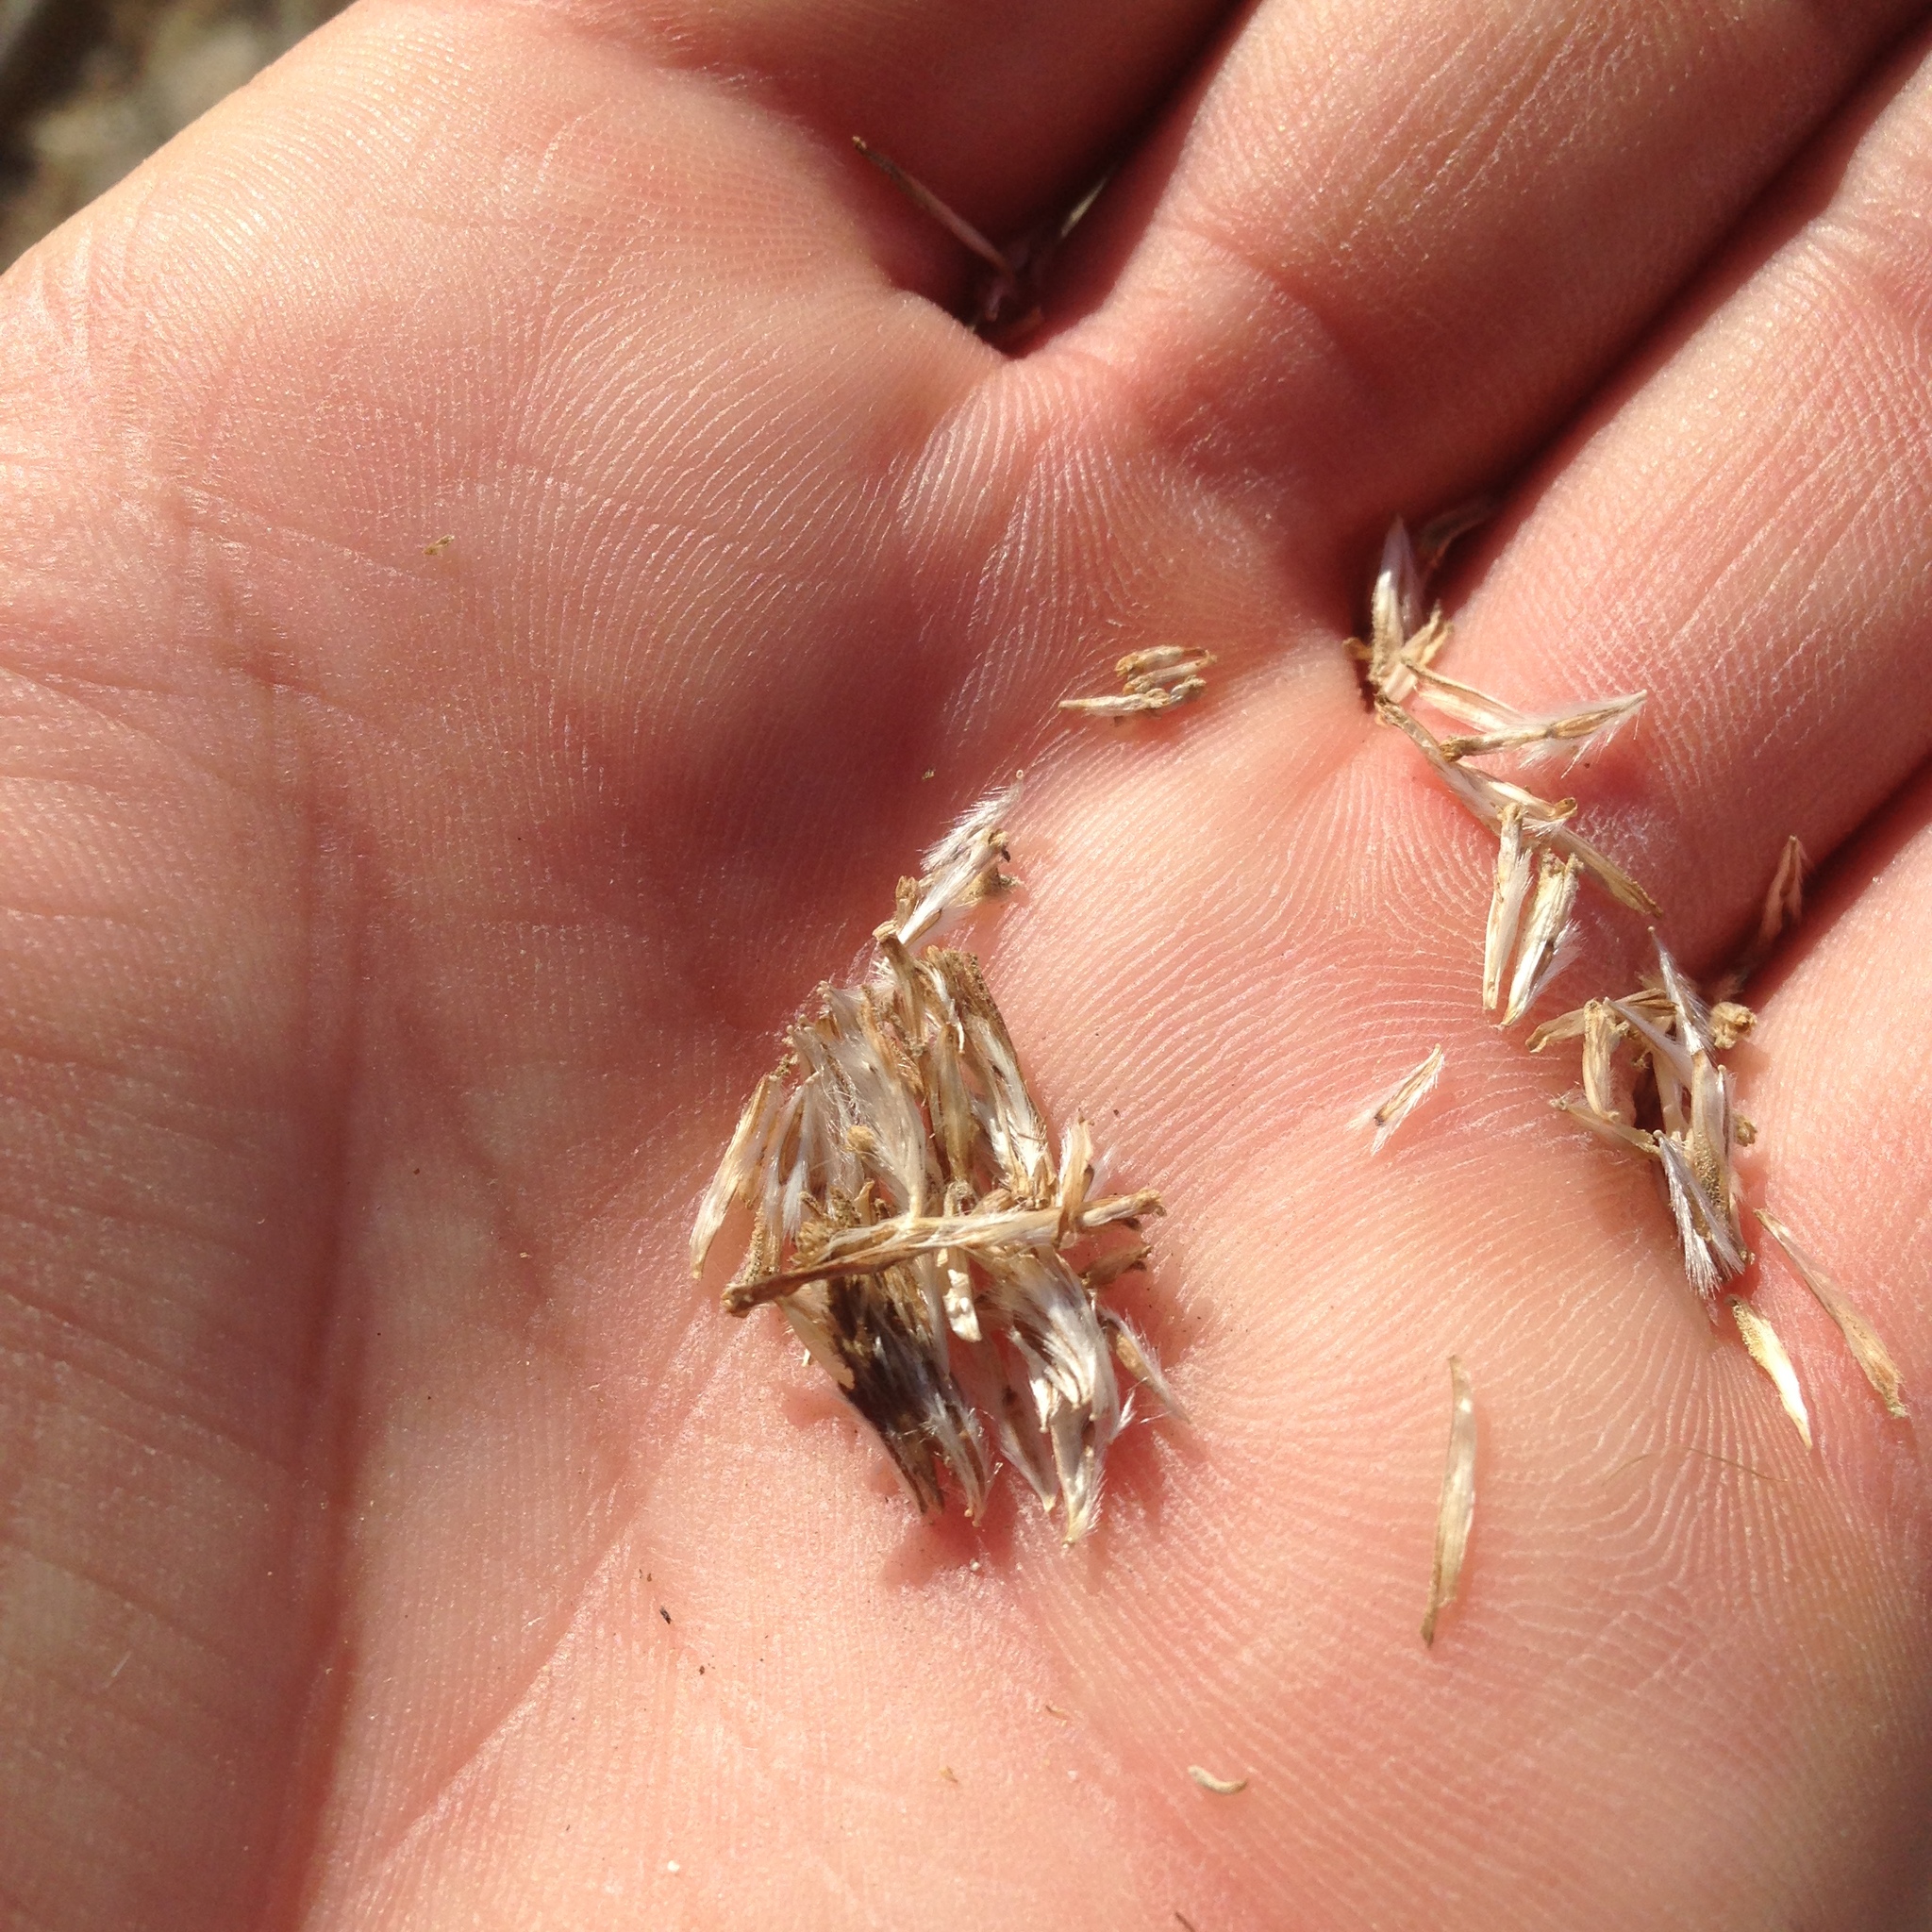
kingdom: Plantae
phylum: Tracheophyta
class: Magnoliopsida
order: Asterales
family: Asteraceae
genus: Encelia
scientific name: Encelia actoni
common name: Acton encelia
